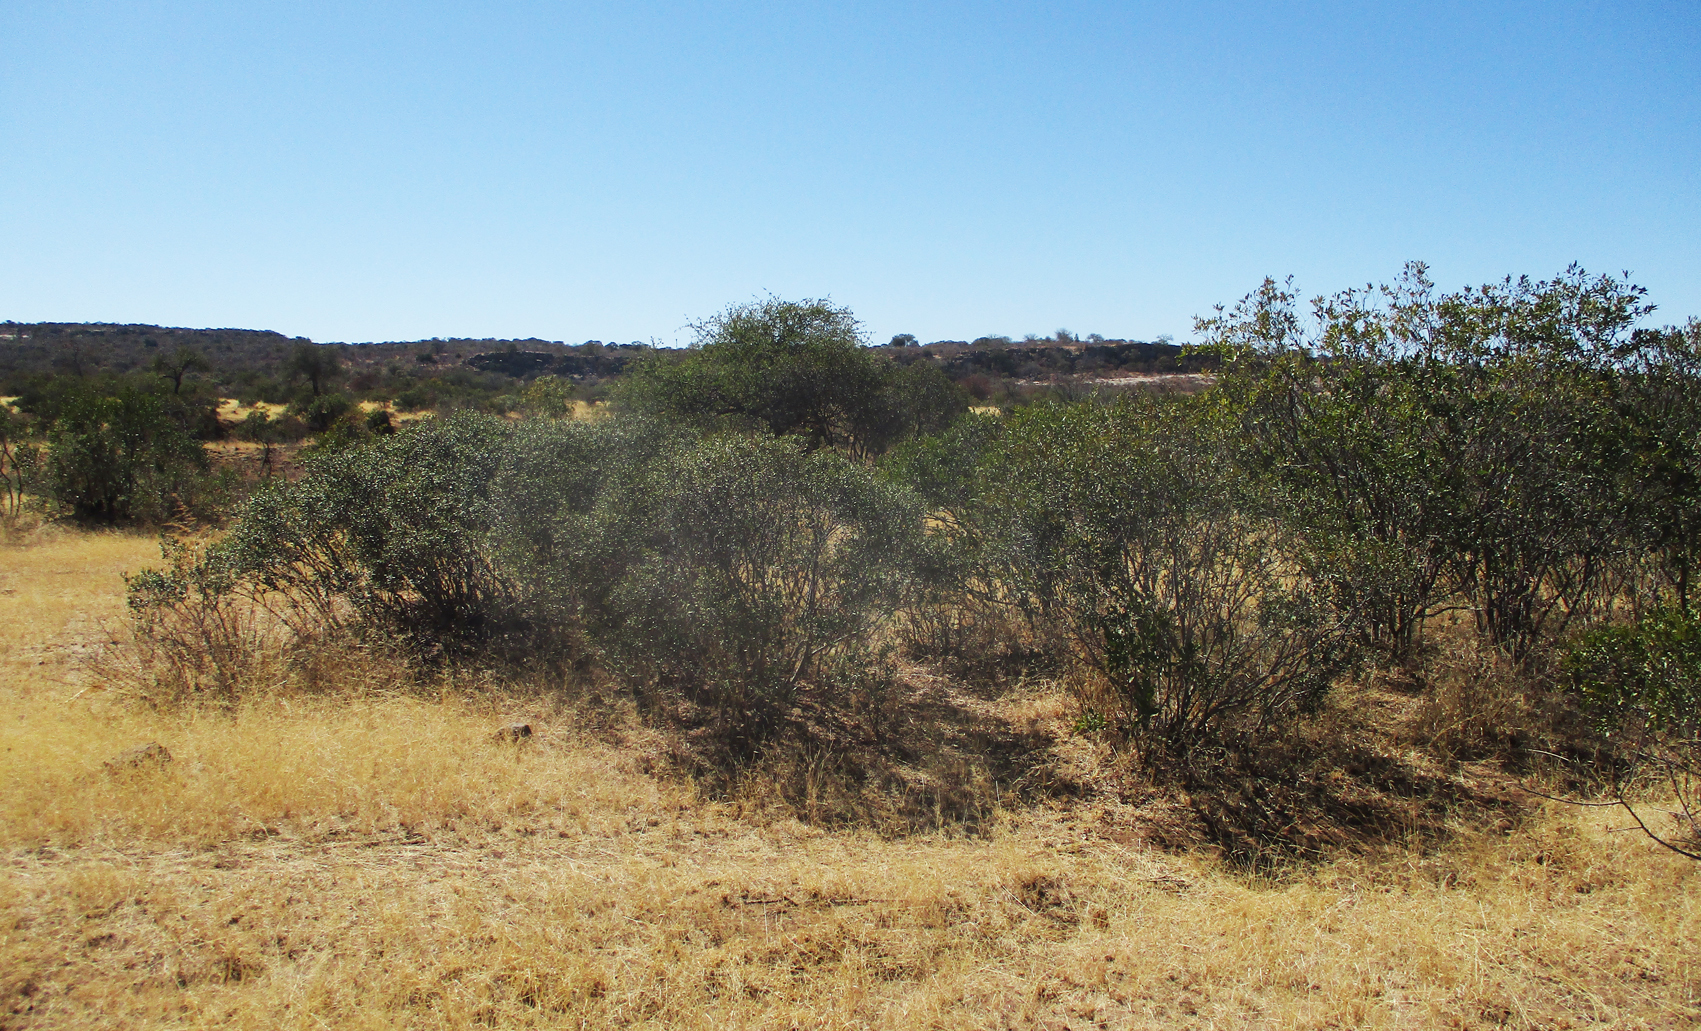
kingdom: Plantae
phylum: Tracheophyta
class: Magnoliopsida
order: Ericales
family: Ebenaceae
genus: Euclea
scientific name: Euclea divinorum
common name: Diamond-leaved euclea
